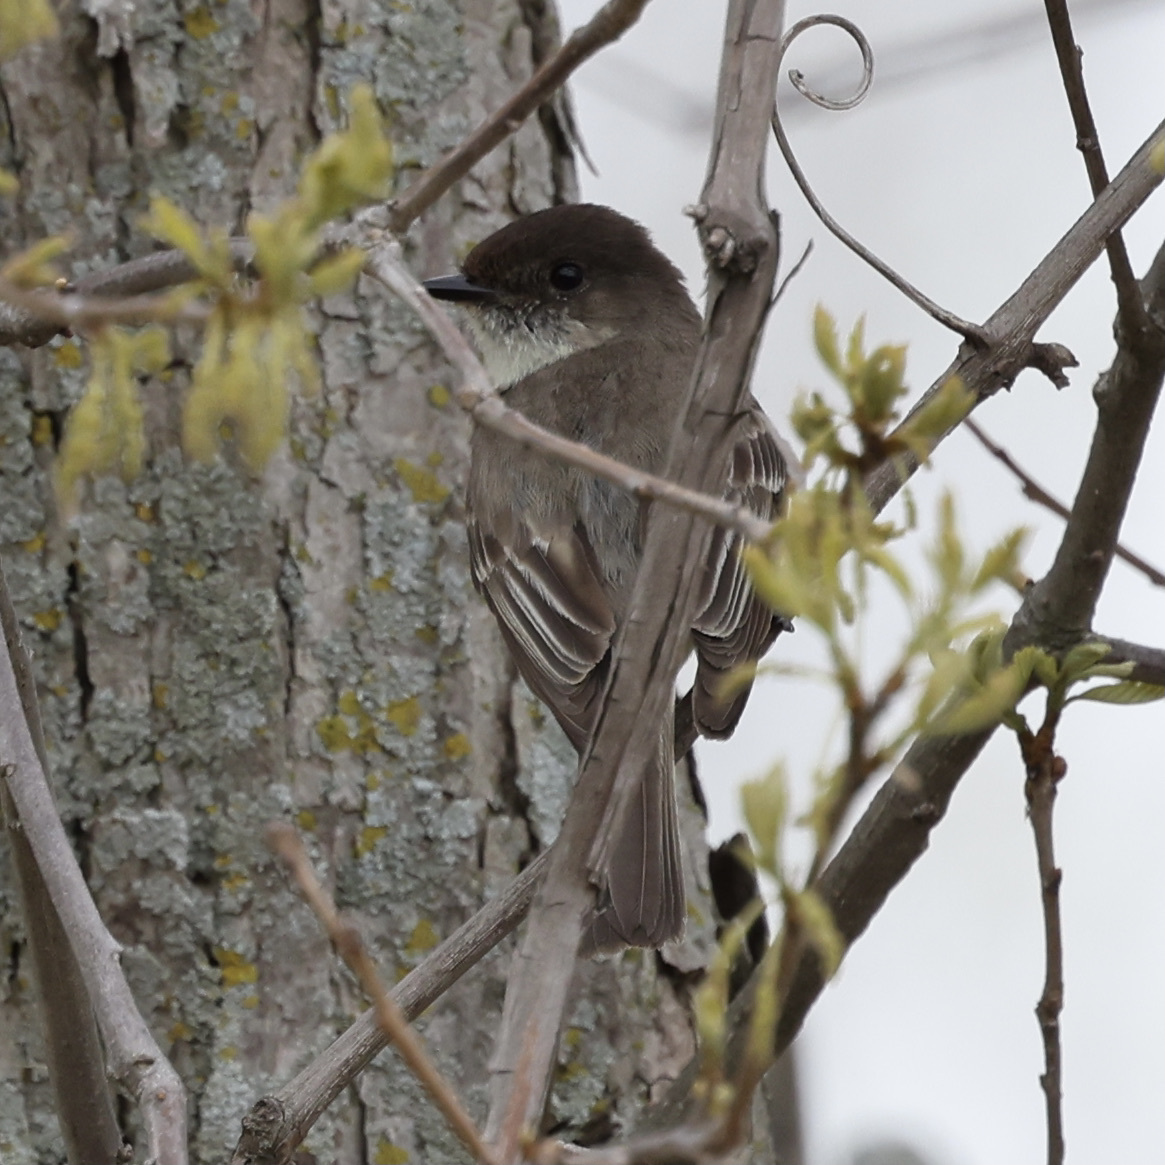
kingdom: Animalia
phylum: Chordata
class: Aves
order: Passeriformes
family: Tyrannidae
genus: Sayornis
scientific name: Sayornis phoebe
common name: Eastern phoebe
